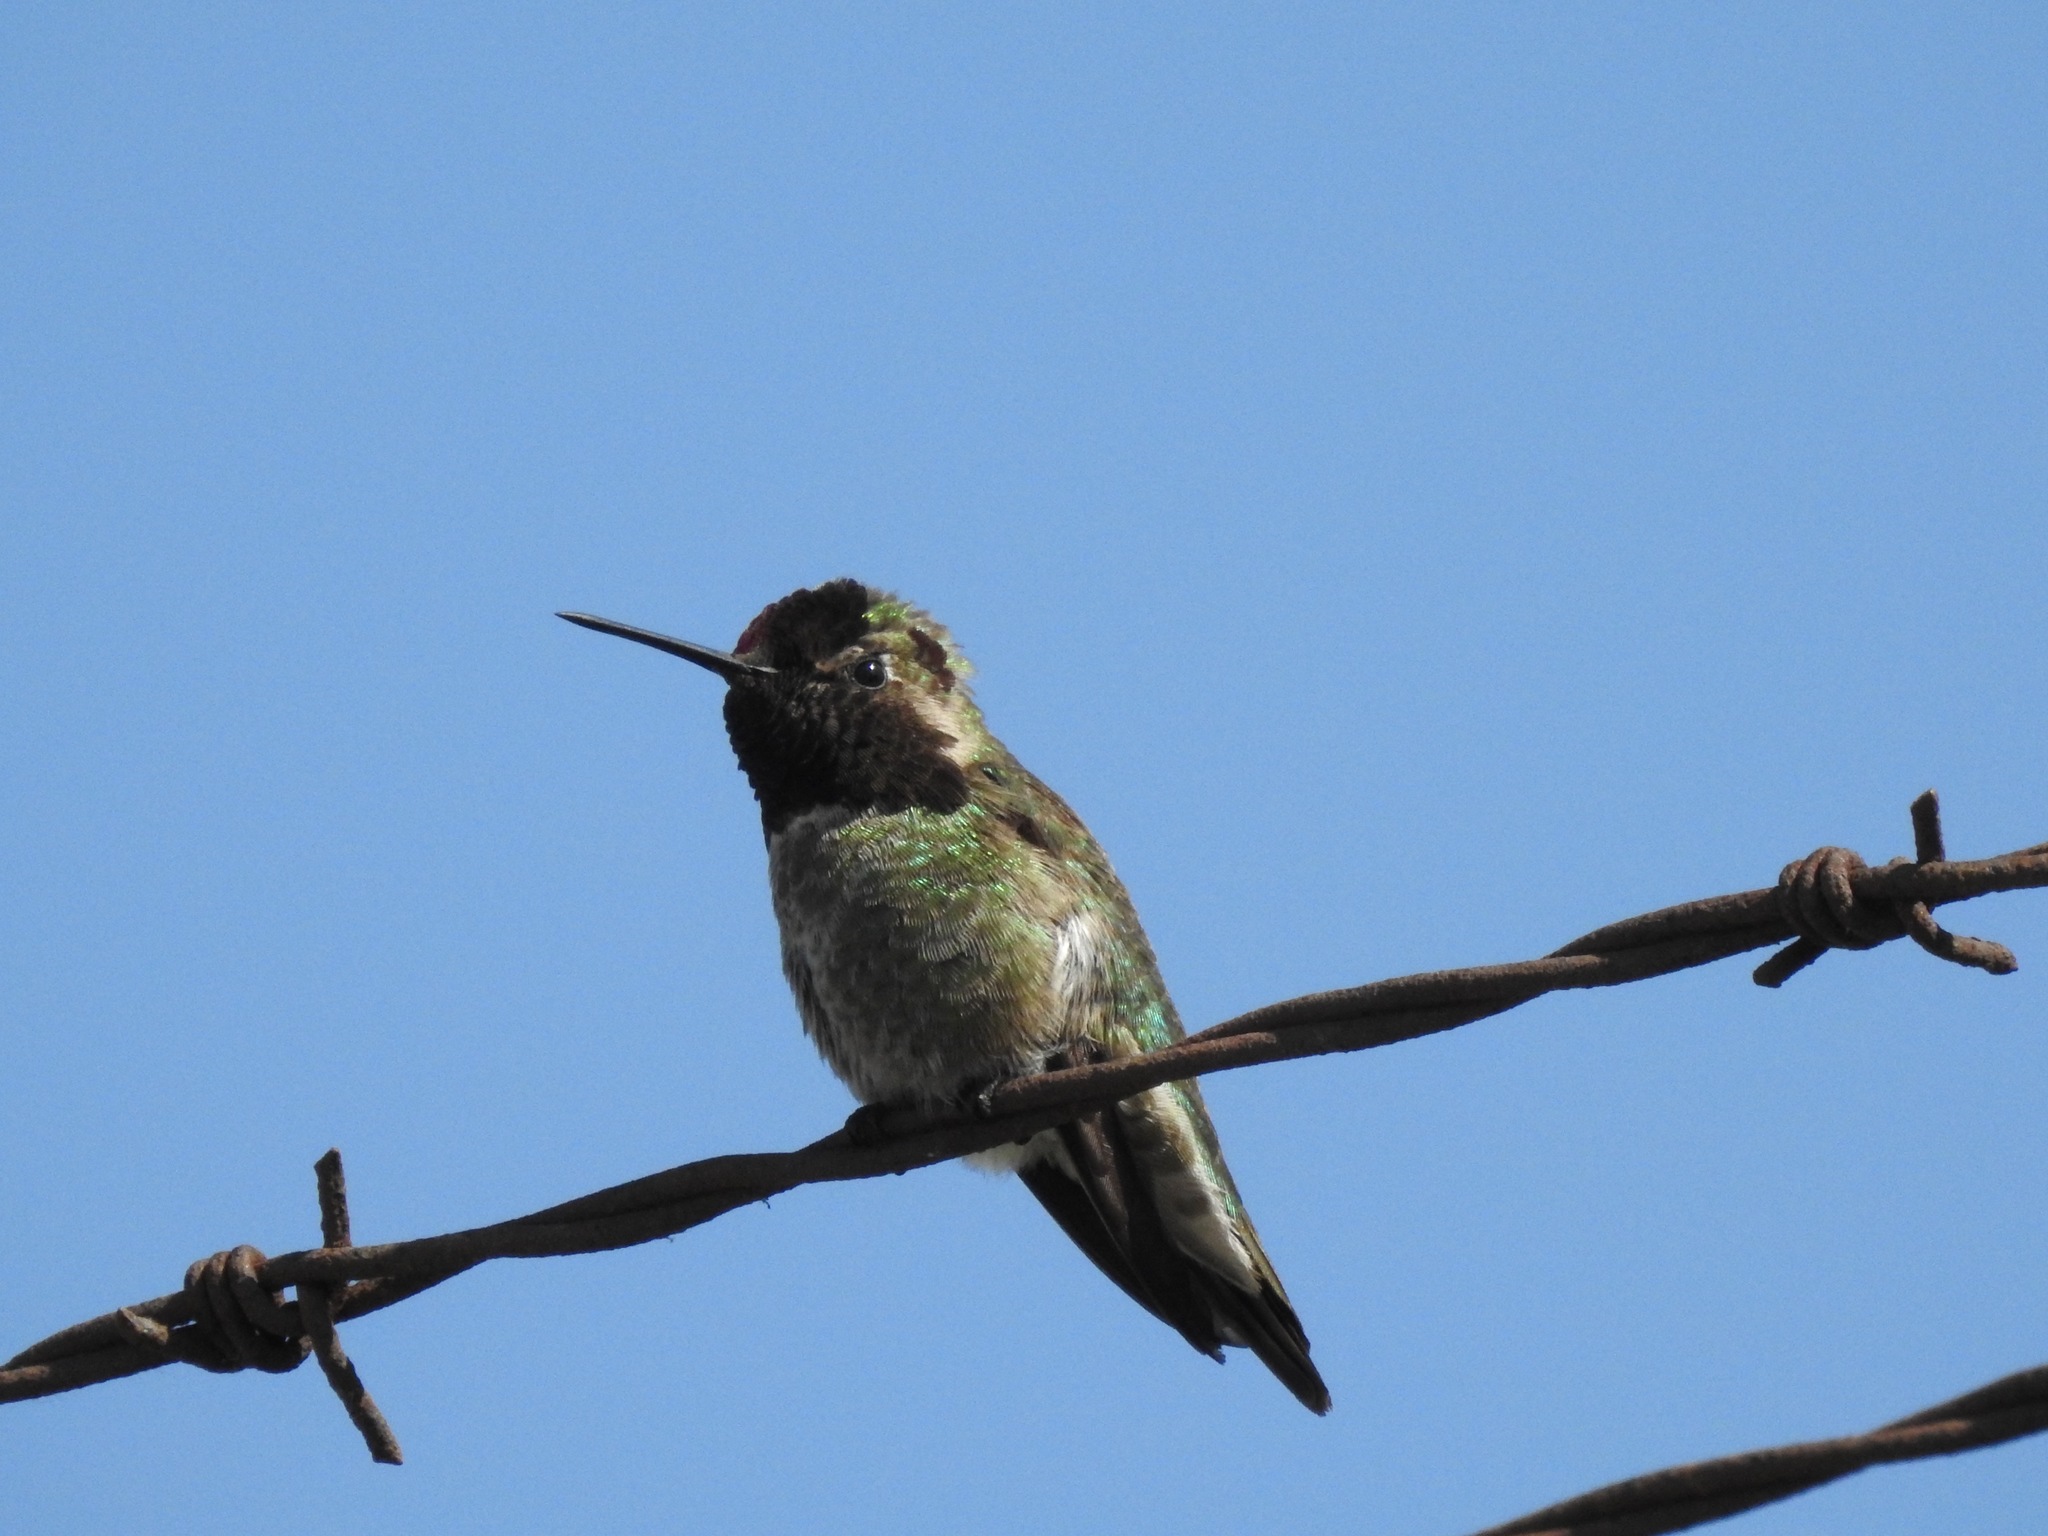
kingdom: Animalia
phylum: Chordata
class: Aves
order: Apodiformes
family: Trochilidae
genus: Calypte
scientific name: Calypte anna
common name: Anna's hummingbird
